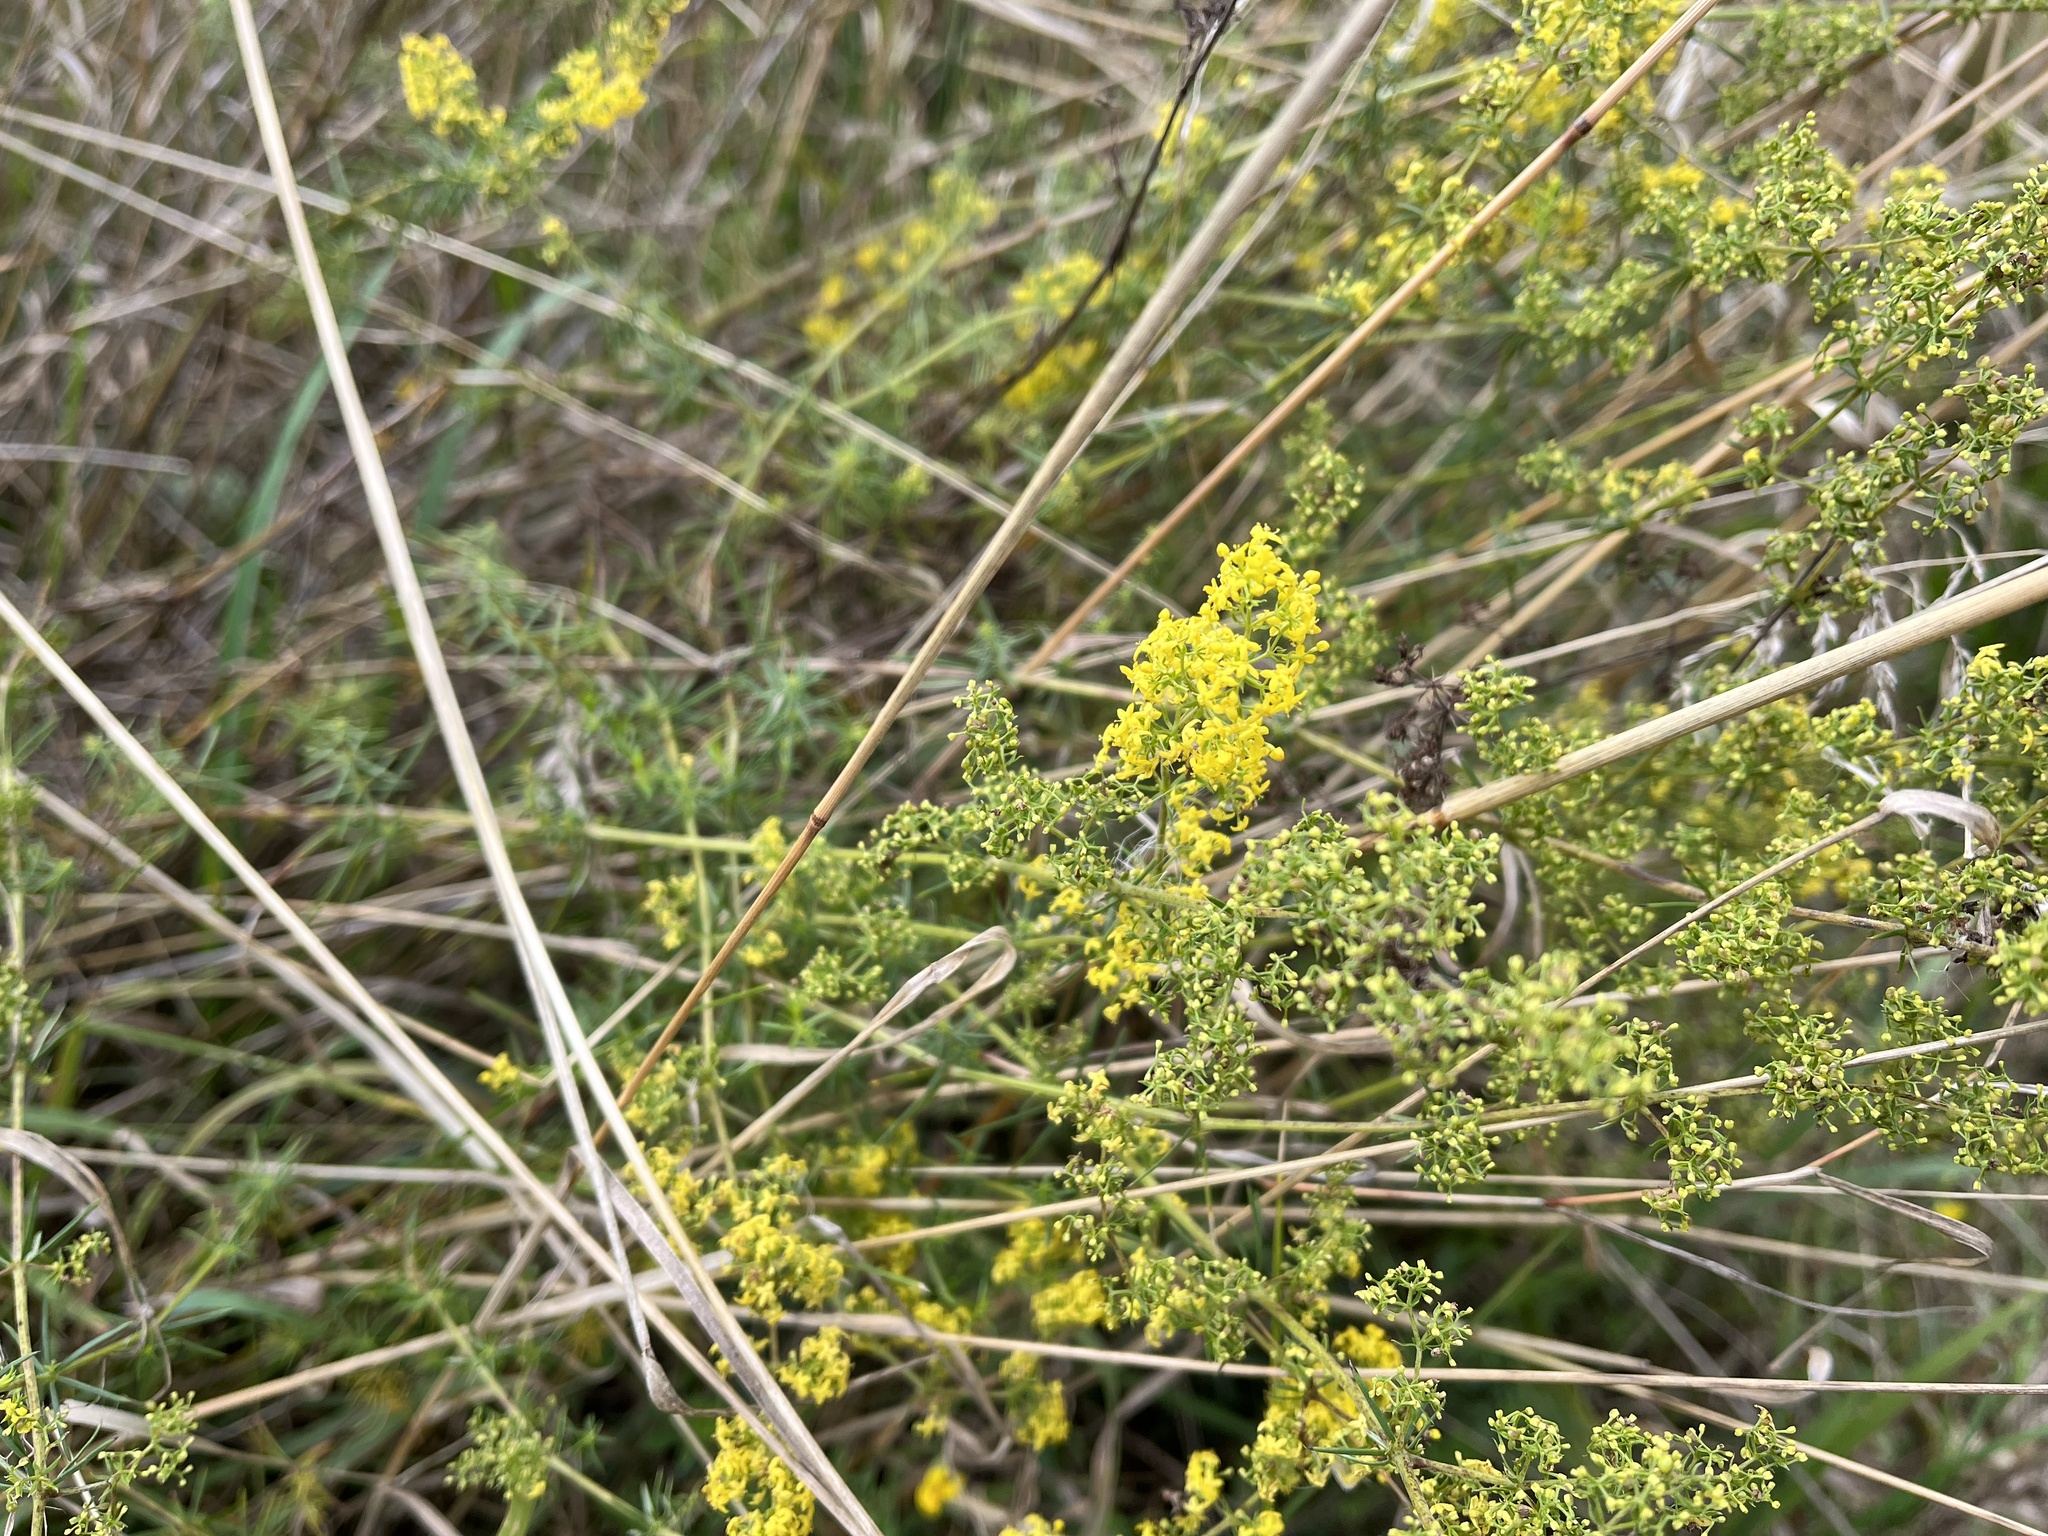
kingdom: Plantae
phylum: Tracheophyta
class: Magnoliopsida
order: Gentianales
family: Rubiaceae
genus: Galium
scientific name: Galium verum
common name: Lady's bedstraw
